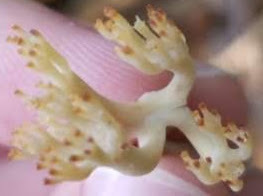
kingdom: Fungi
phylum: Basidiomycota
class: Agaricomycetes
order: Russulales
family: Auriscalpiaceae
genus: Artomyces
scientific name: Artomyces pyxidatus
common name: Crown-tipped coral fungus
